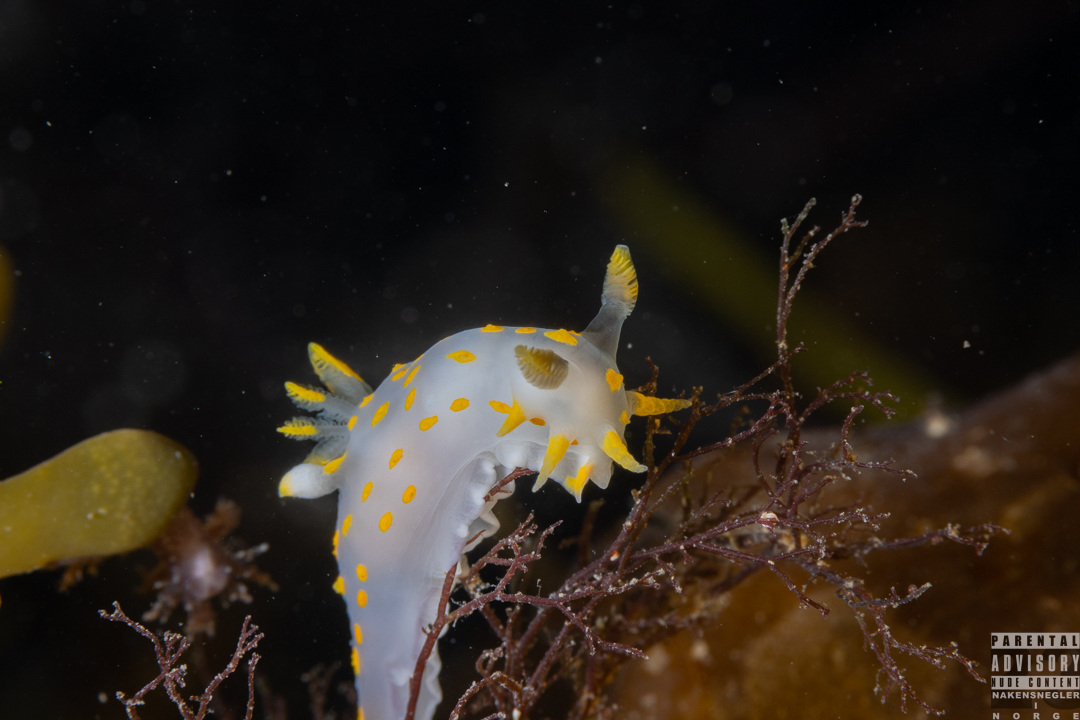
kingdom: Animalia
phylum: Mollusca
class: Gastropoda
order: Nudibranchia
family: Polyceridae
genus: Polycera
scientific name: Polycera quadrilineata
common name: Four-striped polycera
